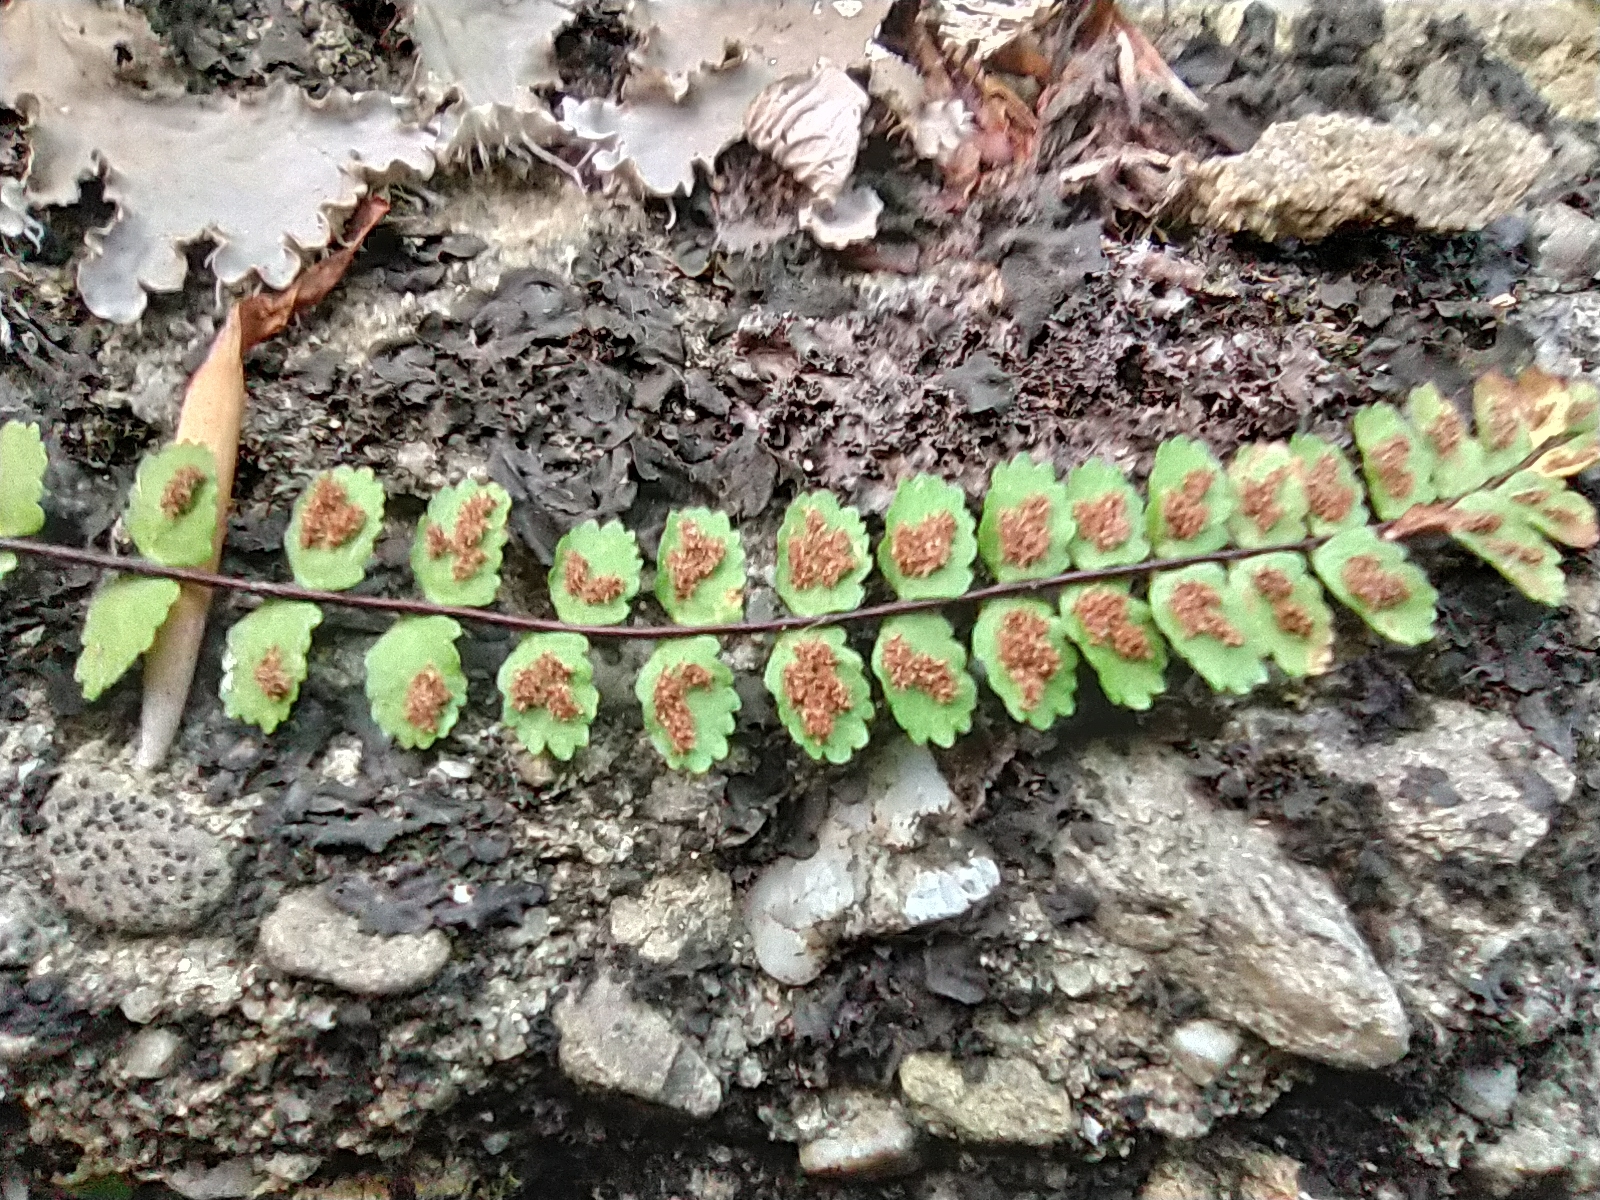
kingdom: Plantae
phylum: Tracheophyta
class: Polypodiopsida
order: Polypodiales
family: Aspleniaceae
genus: Asplenium
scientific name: Asplenium trichomanes
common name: Maidenhair spleenwort
